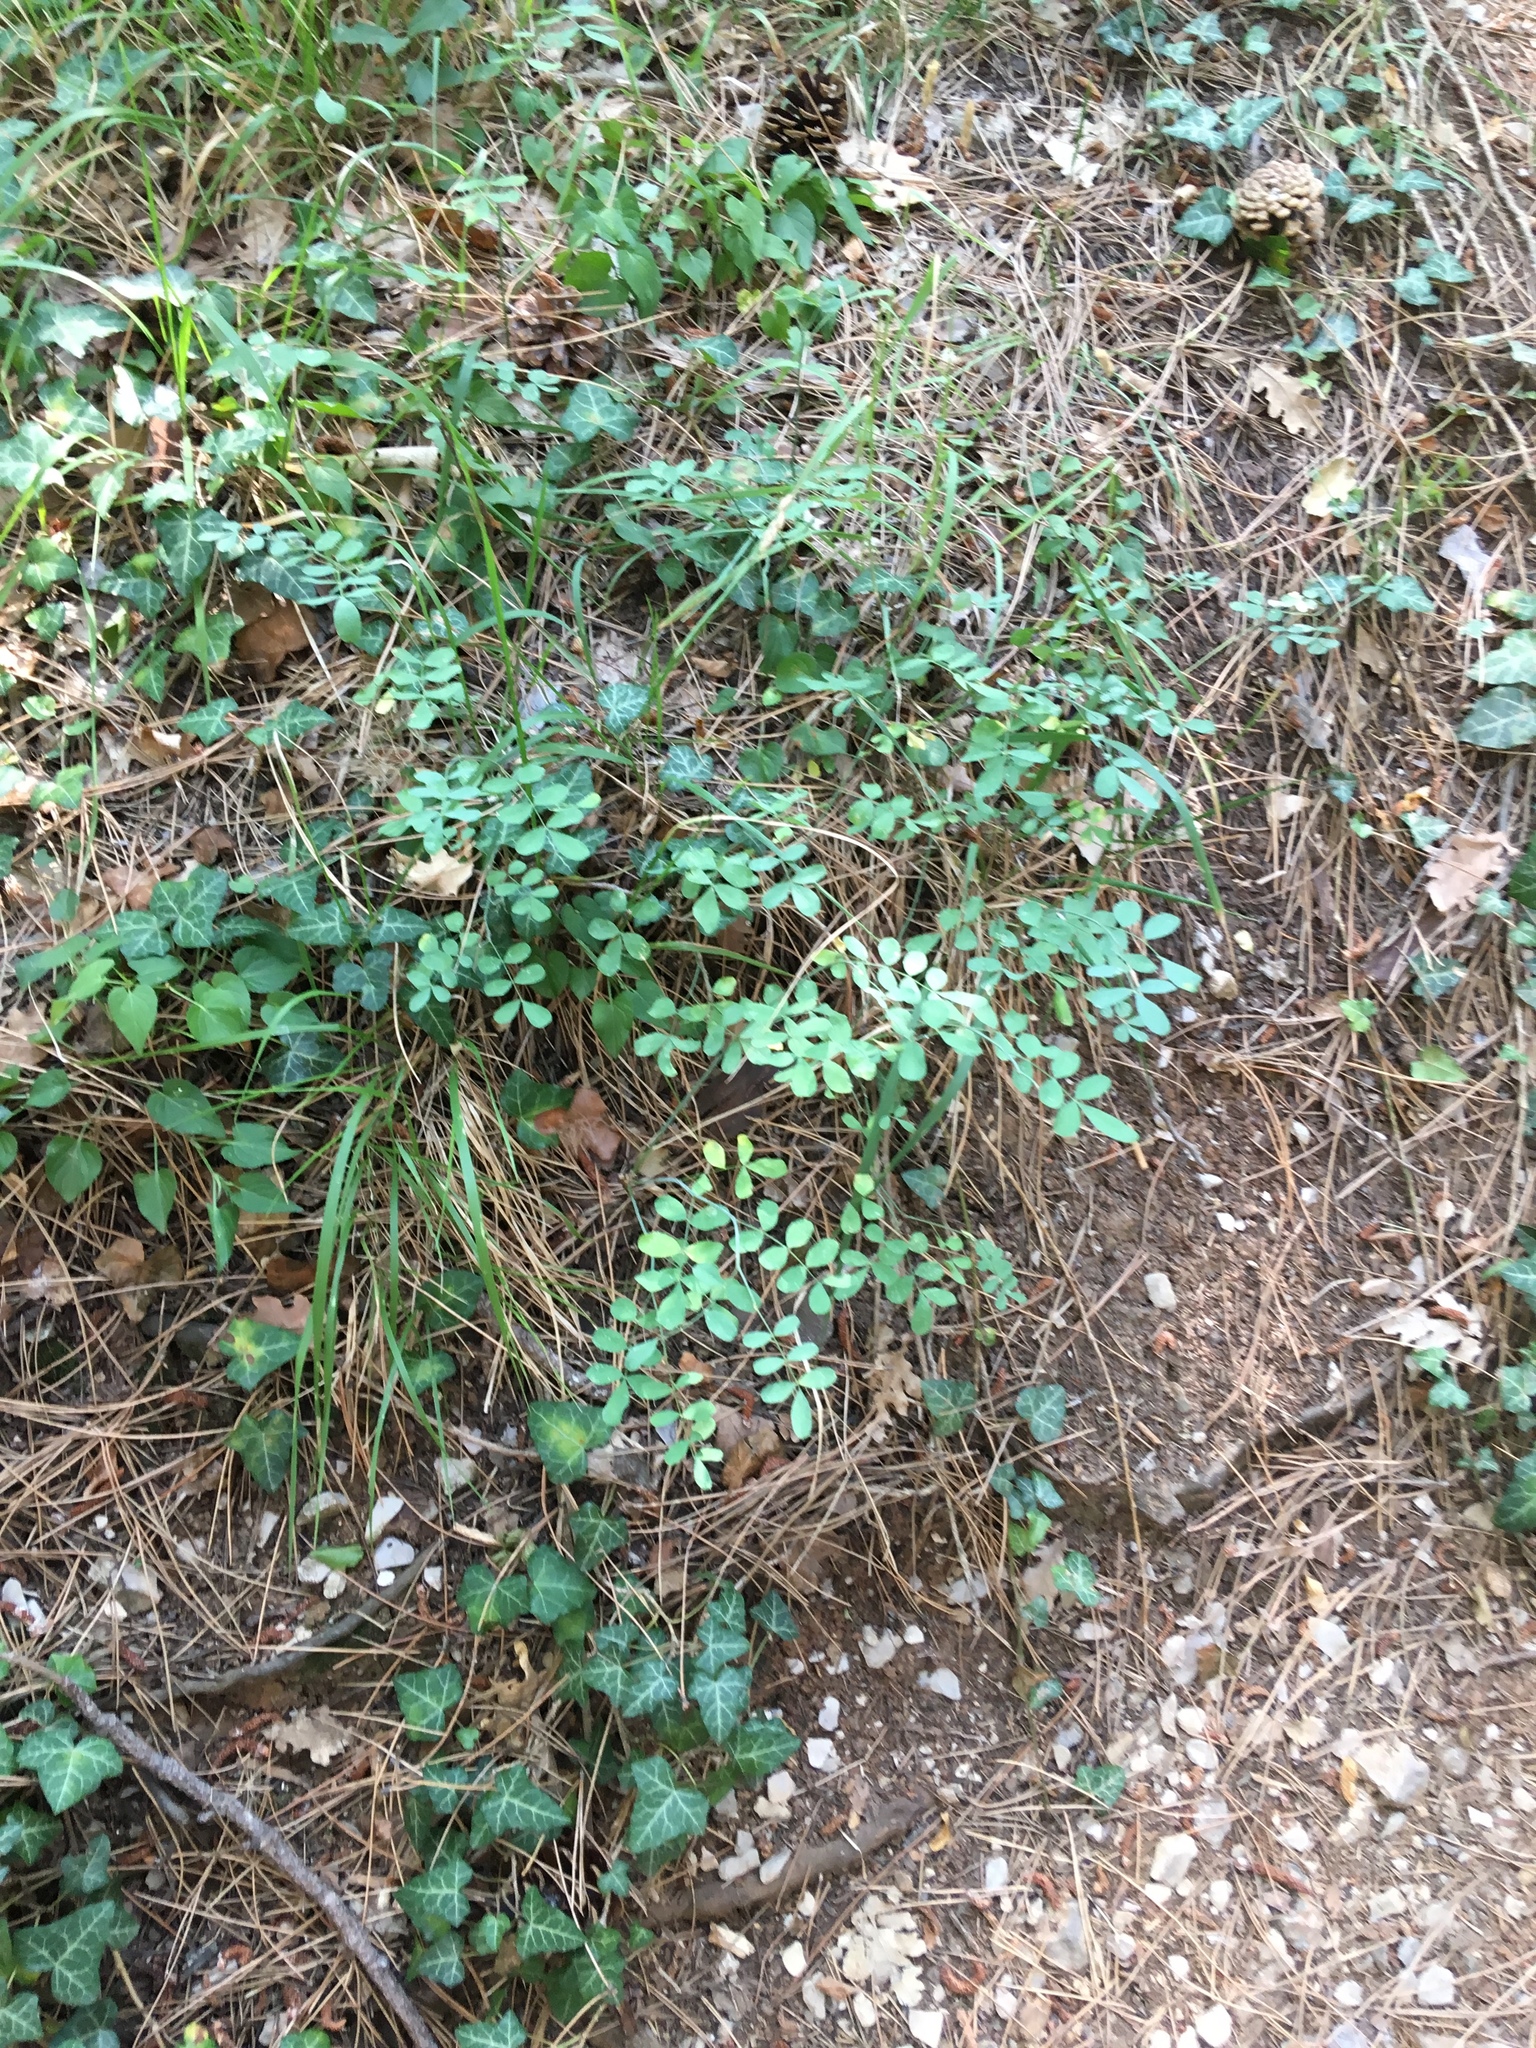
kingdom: Plantae
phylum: Tracheophyta
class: Magnoliopsida
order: Fabales
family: Fabaceae
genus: Hippocrepis
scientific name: Hippocrepis emerus
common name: Scorpion senna
